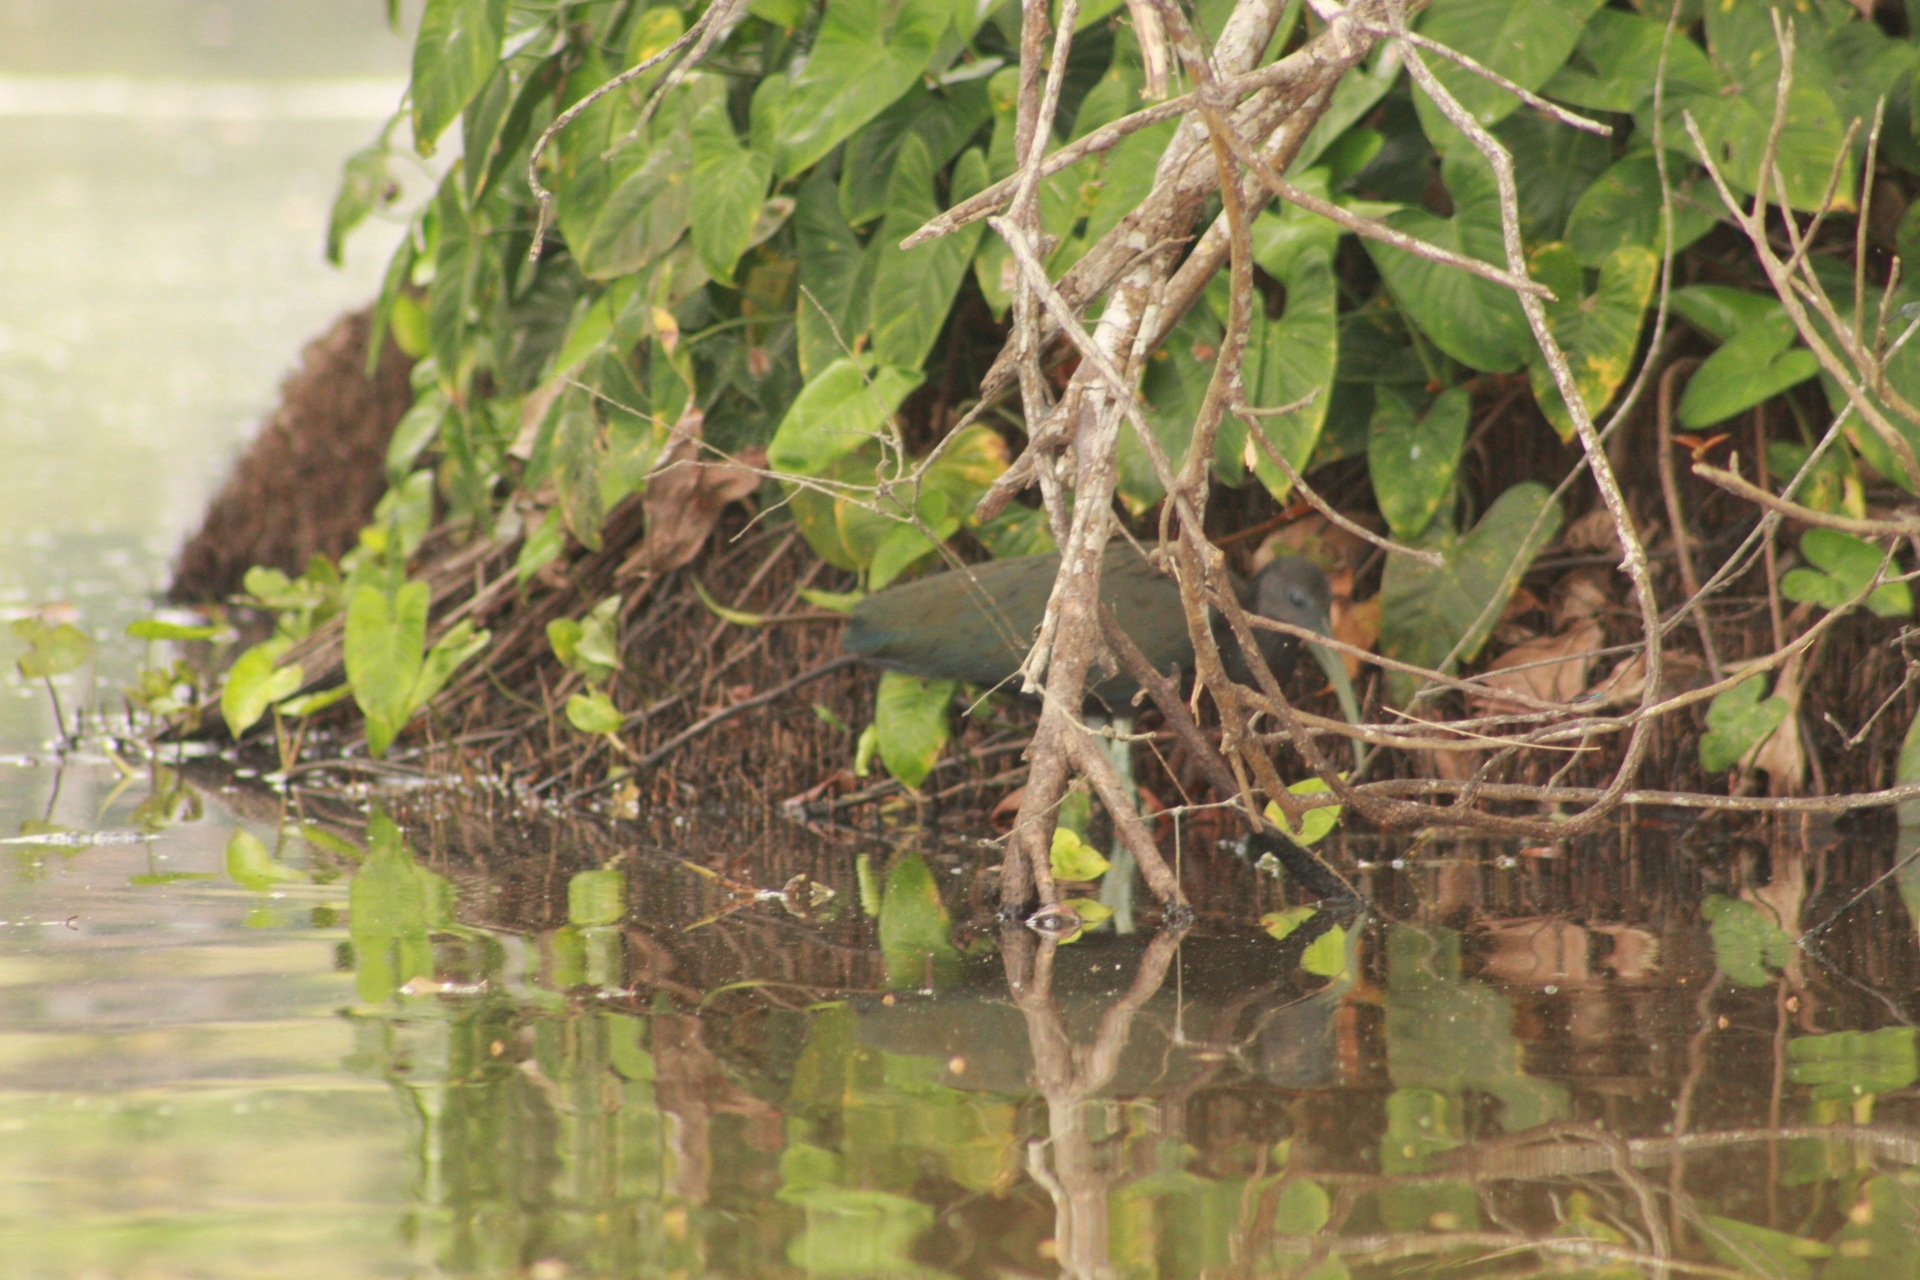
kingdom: Animalia
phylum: Chordata
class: Aves
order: Pelecaniformes
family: Threskiornithidae
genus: Mesembrinibis
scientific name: Mesembrinibis cayennensis
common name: Green ibis
